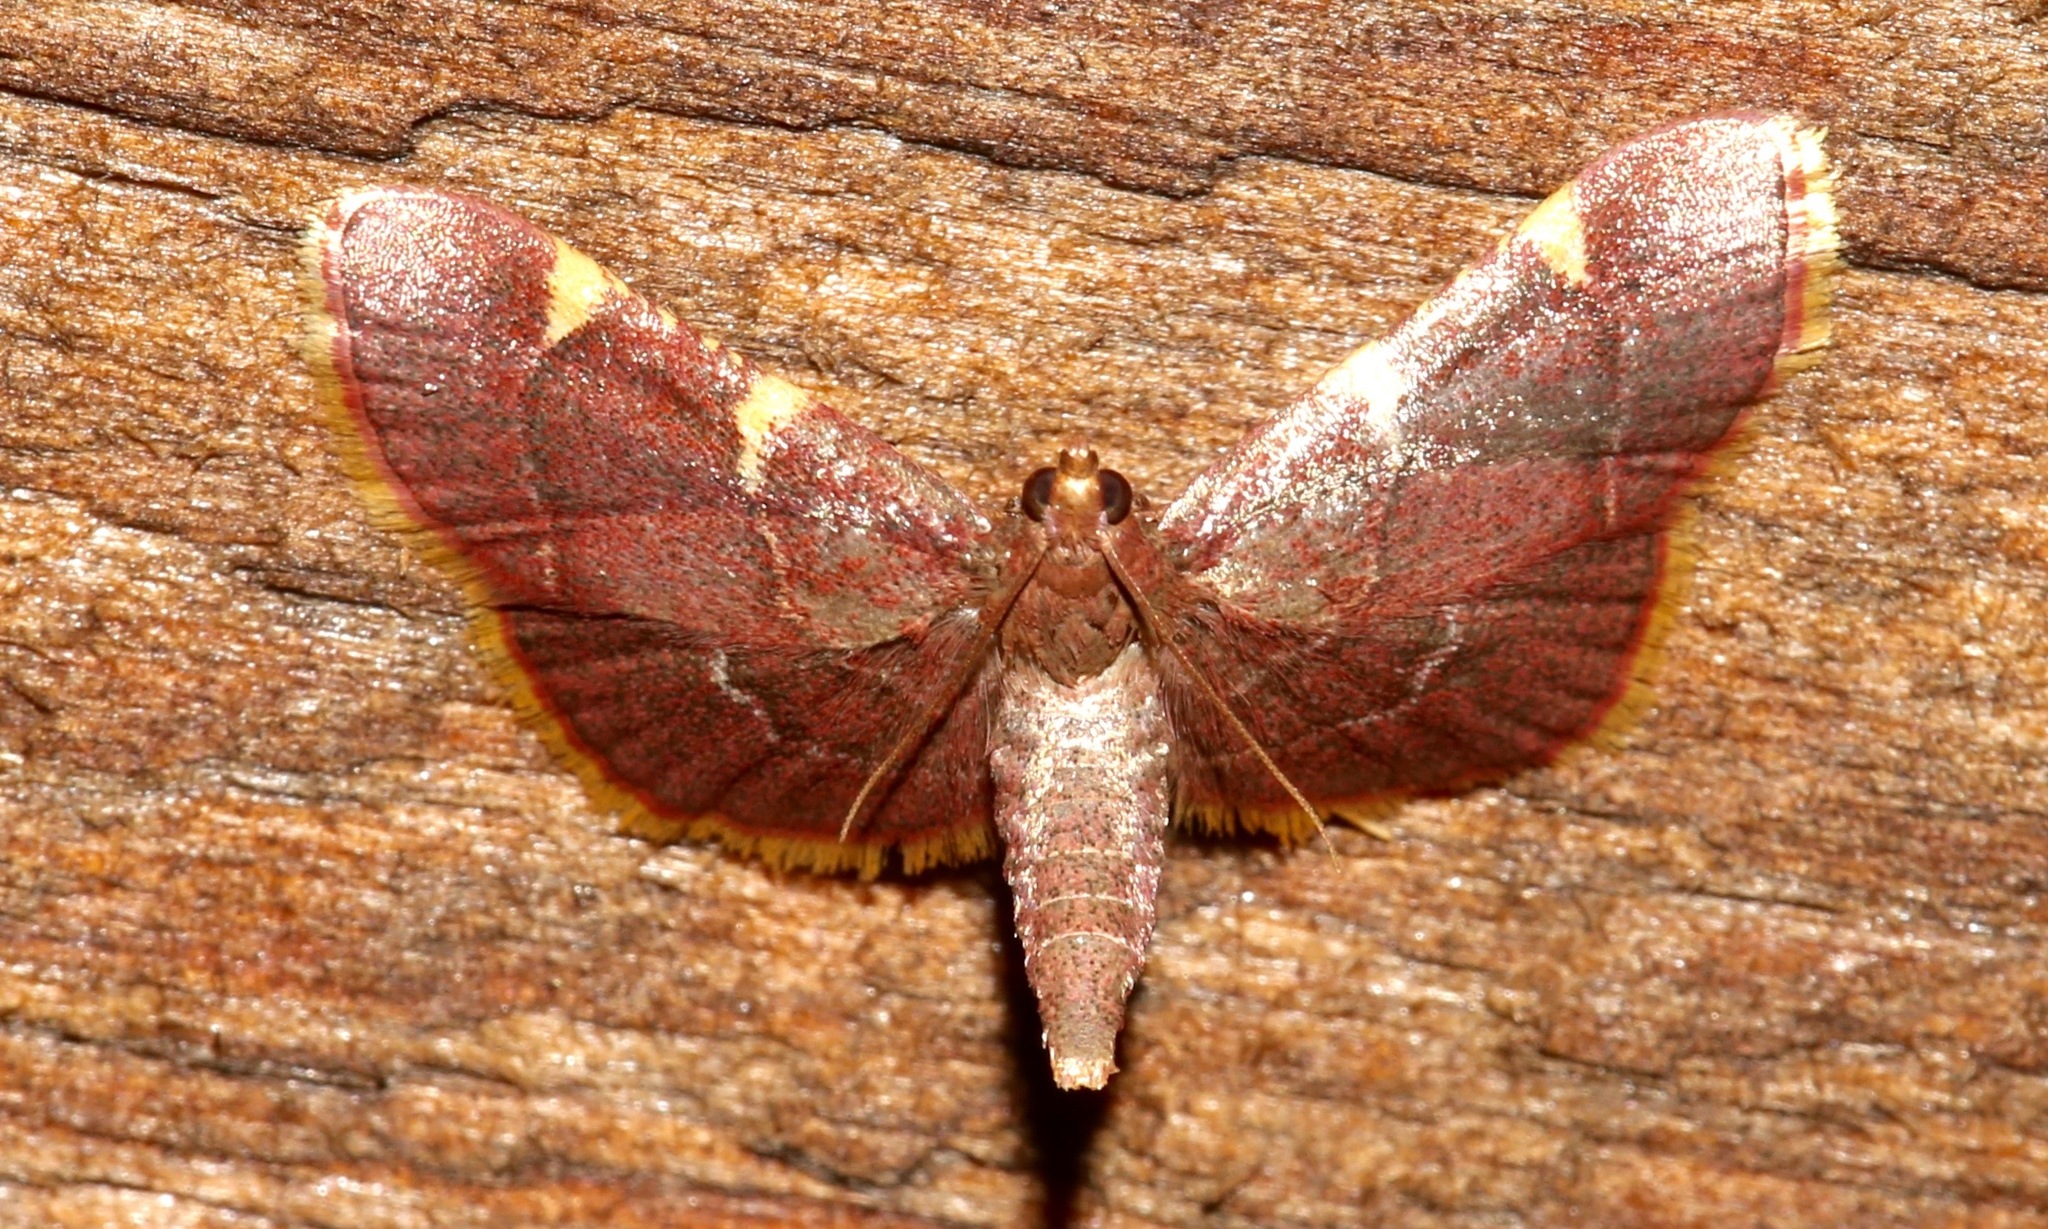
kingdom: Animalia
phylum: Arthropoda
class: Insecta
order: Lepidoptera
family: Pyralidae
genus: Hypsopygia
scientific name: Hypsopygia olinalis
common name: Yellow-fringed dolichomia moth
